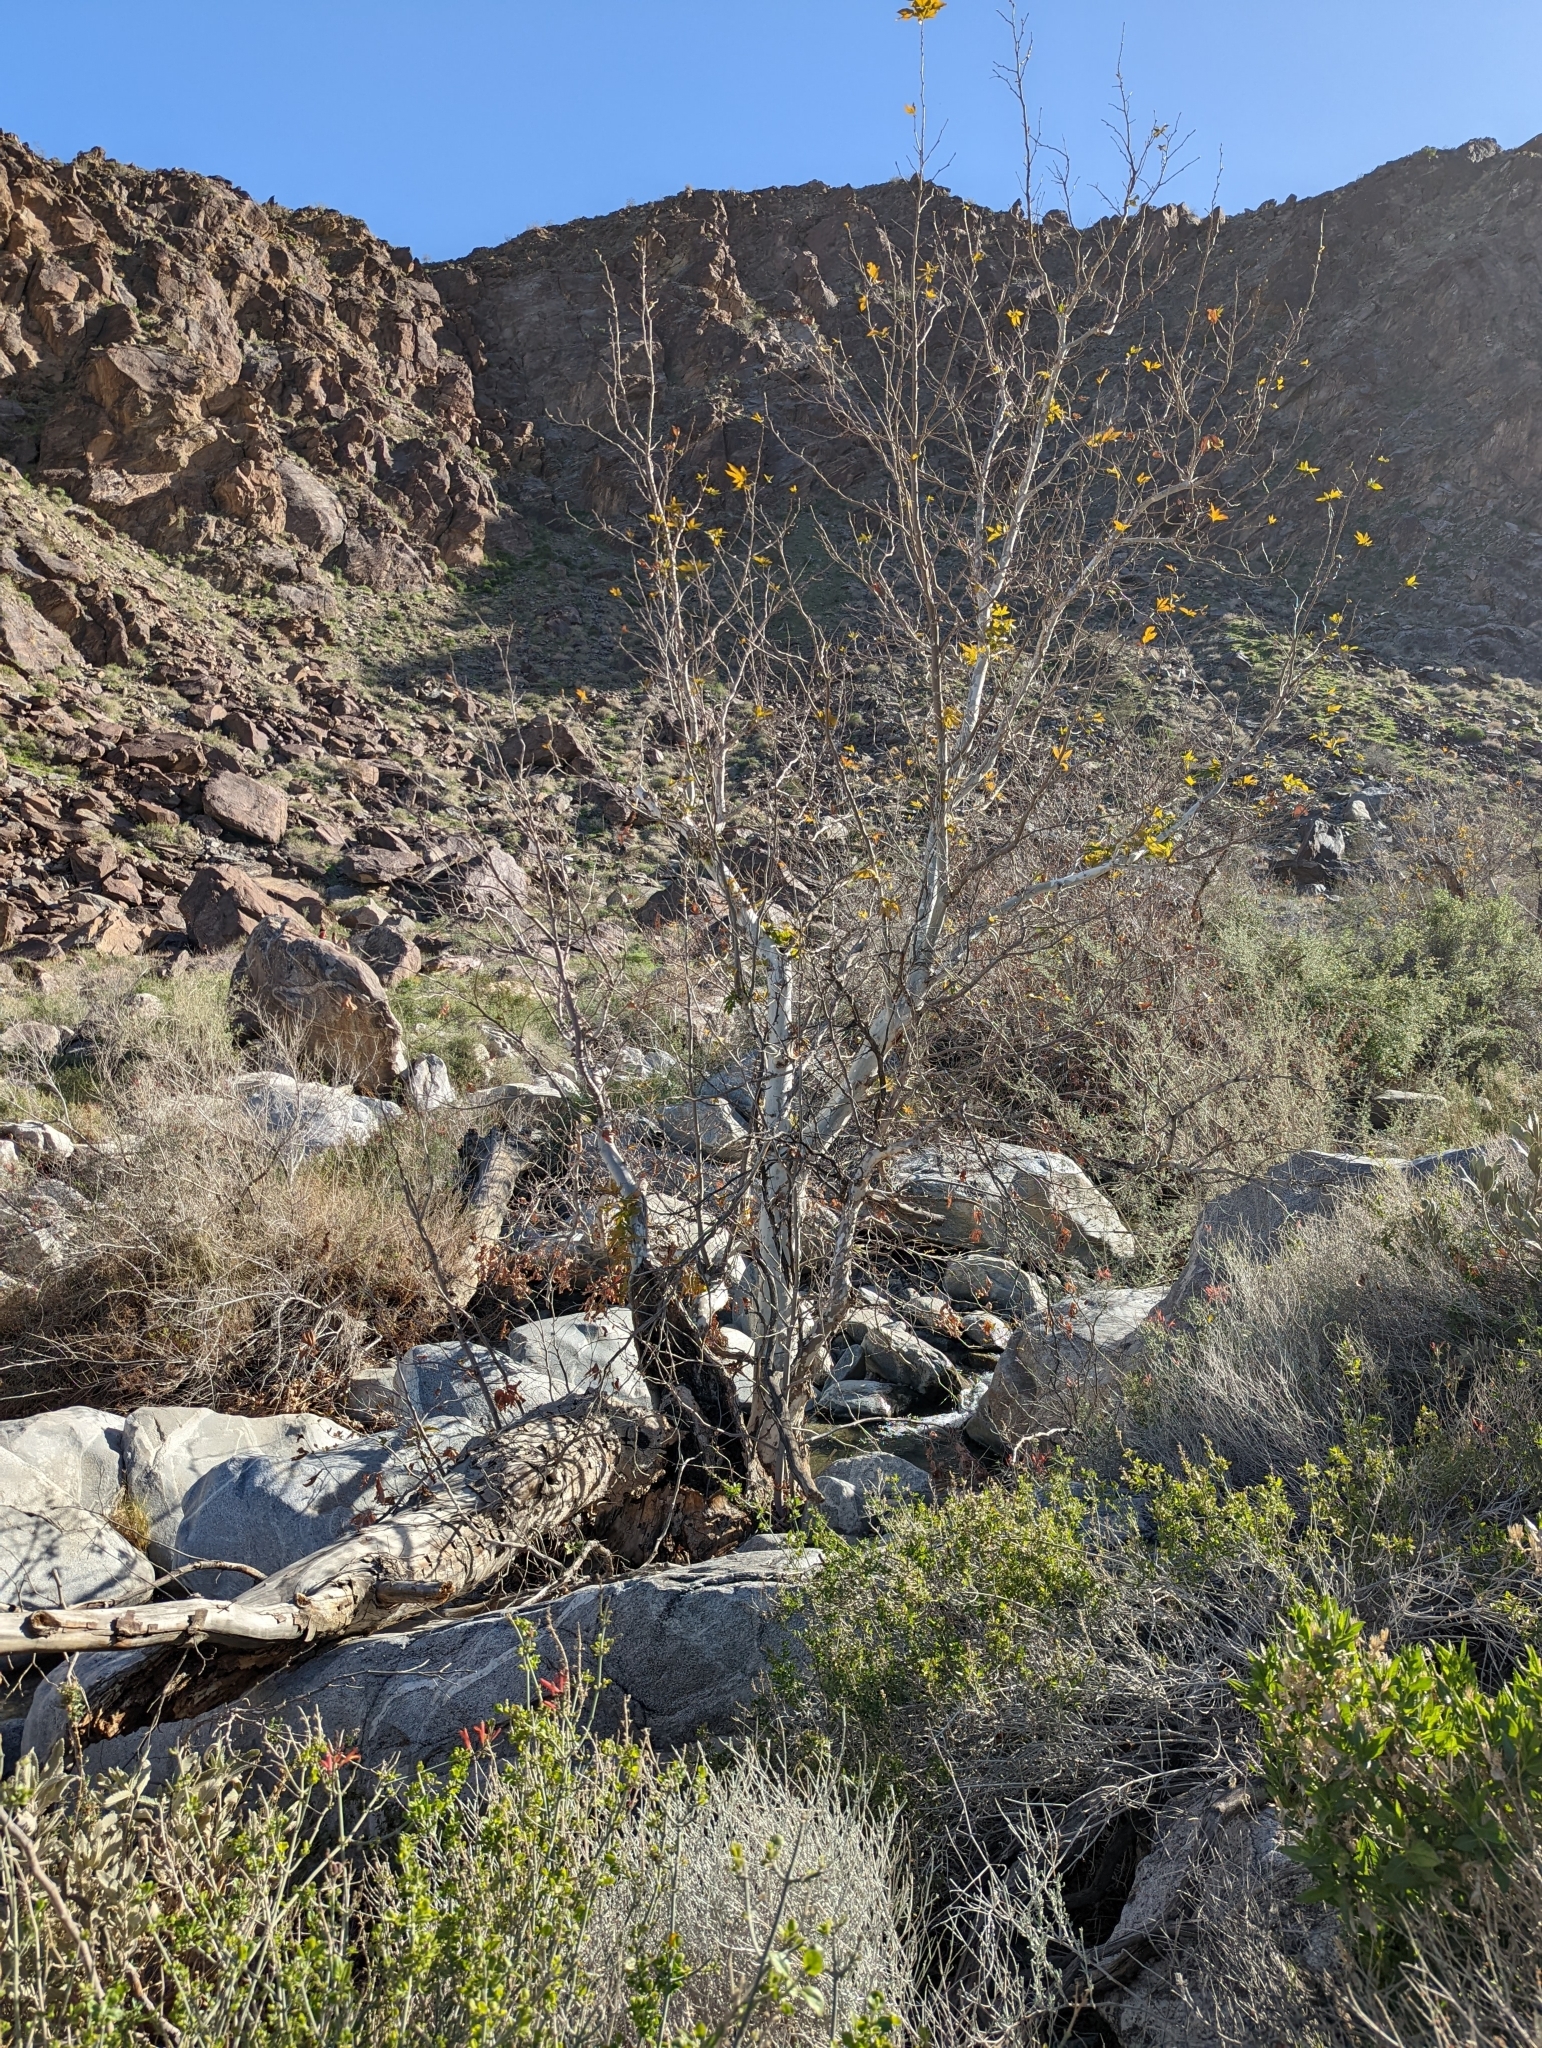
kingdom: Plantae
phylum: Tracheophyta
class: Magnoliopsida
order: Proteales
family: Platanaceae
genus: Platanus
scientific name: Platanus racemosa
